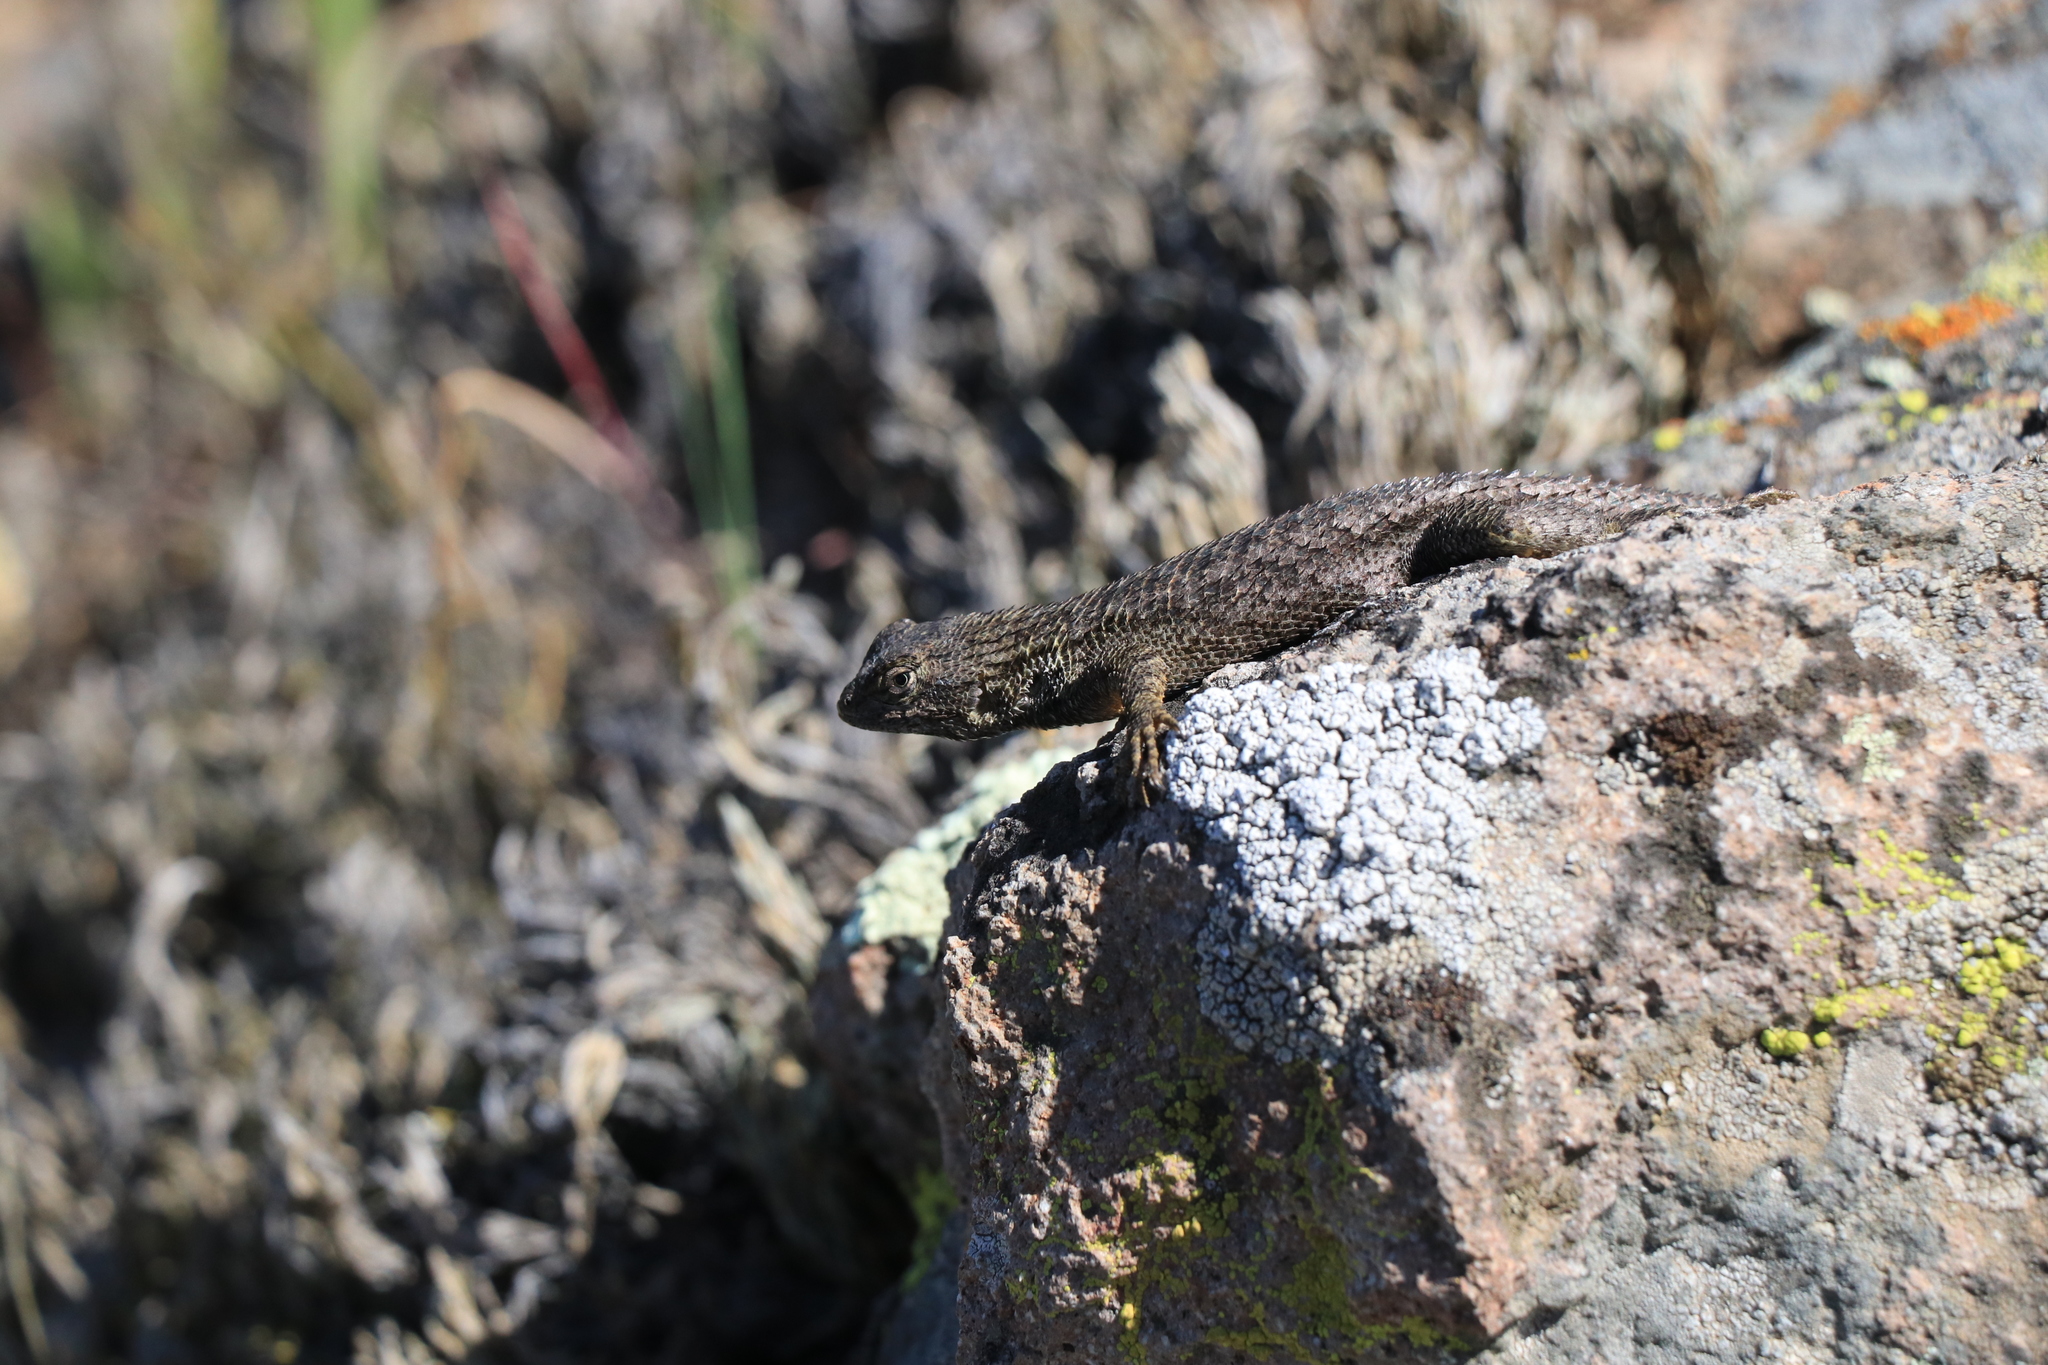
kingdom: Animalia
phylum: Chordata
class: Squamata
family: Phrynosomatidae
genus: Sceloporus
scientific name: Sceloporus occidentalis
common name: Western fence lizard
